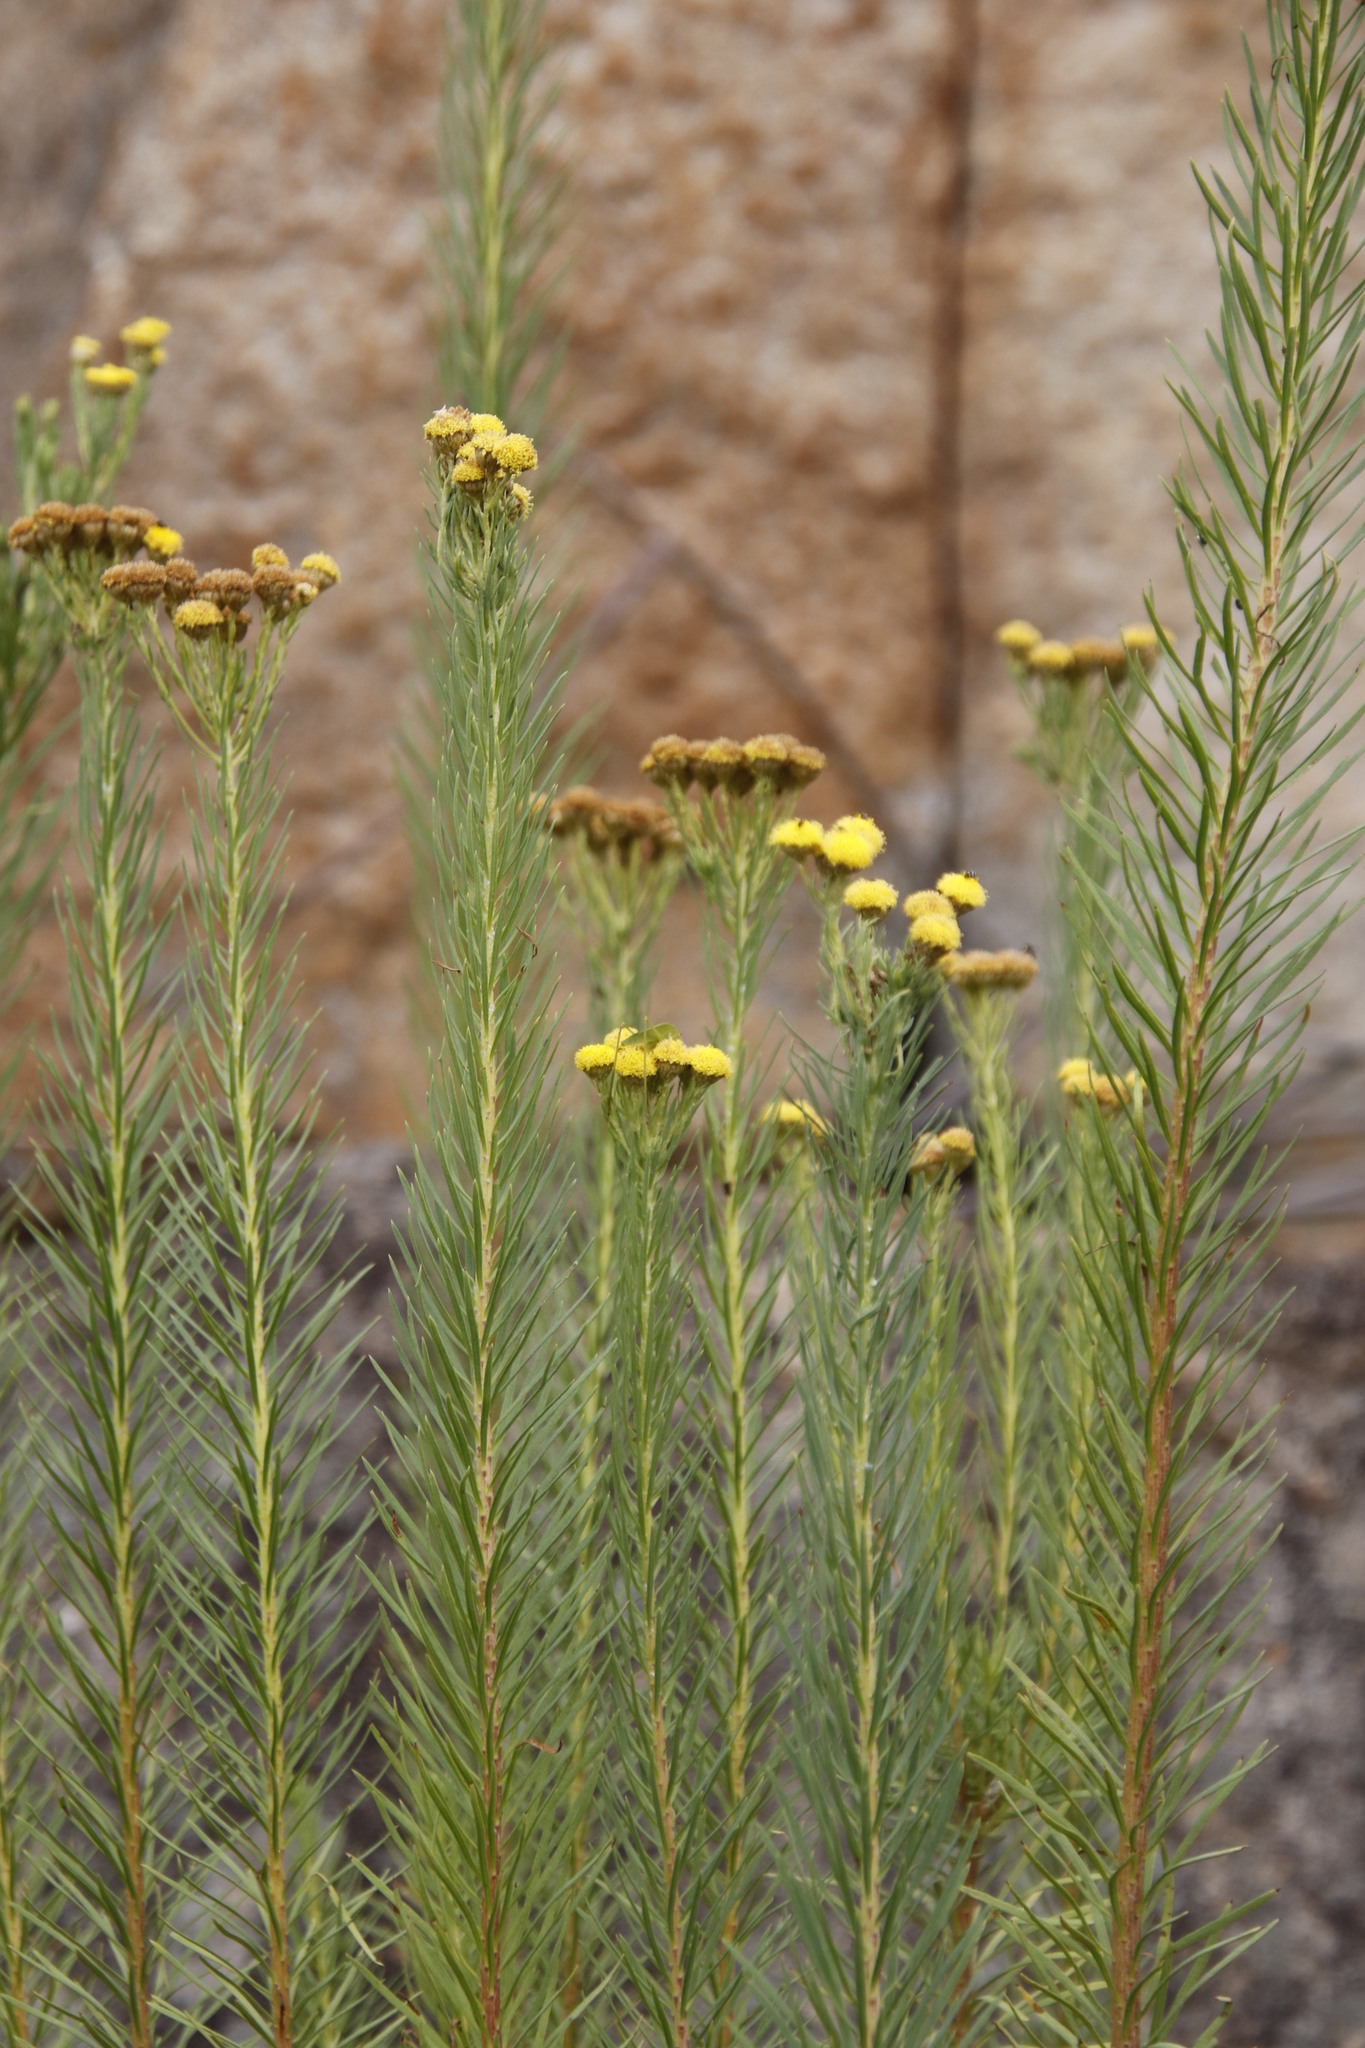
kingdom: Plantae
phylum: Tracheophyta
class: Magnoliopsida
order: Asterales
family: Asteraceae
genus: Phymaspermum
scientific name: Phymaspermum athanasioides
